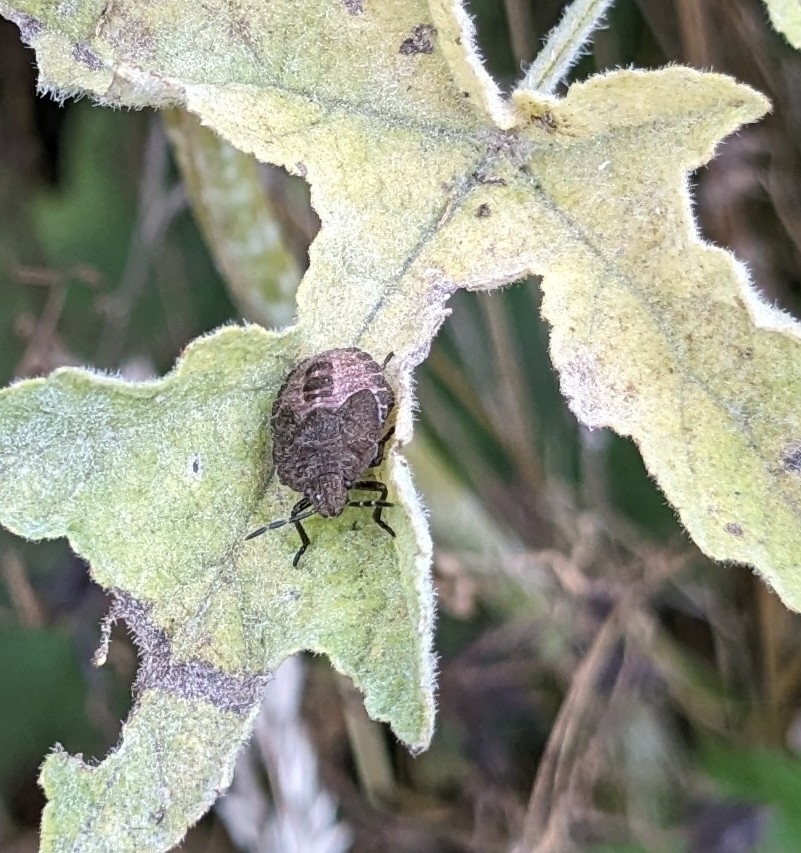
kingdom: Animalia
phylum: Arthropoda
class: Insecta
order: Hemiptera
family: Pentatomidae
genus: Dolycoris
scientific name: Dolycoris baccarum
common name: Sloe bug
